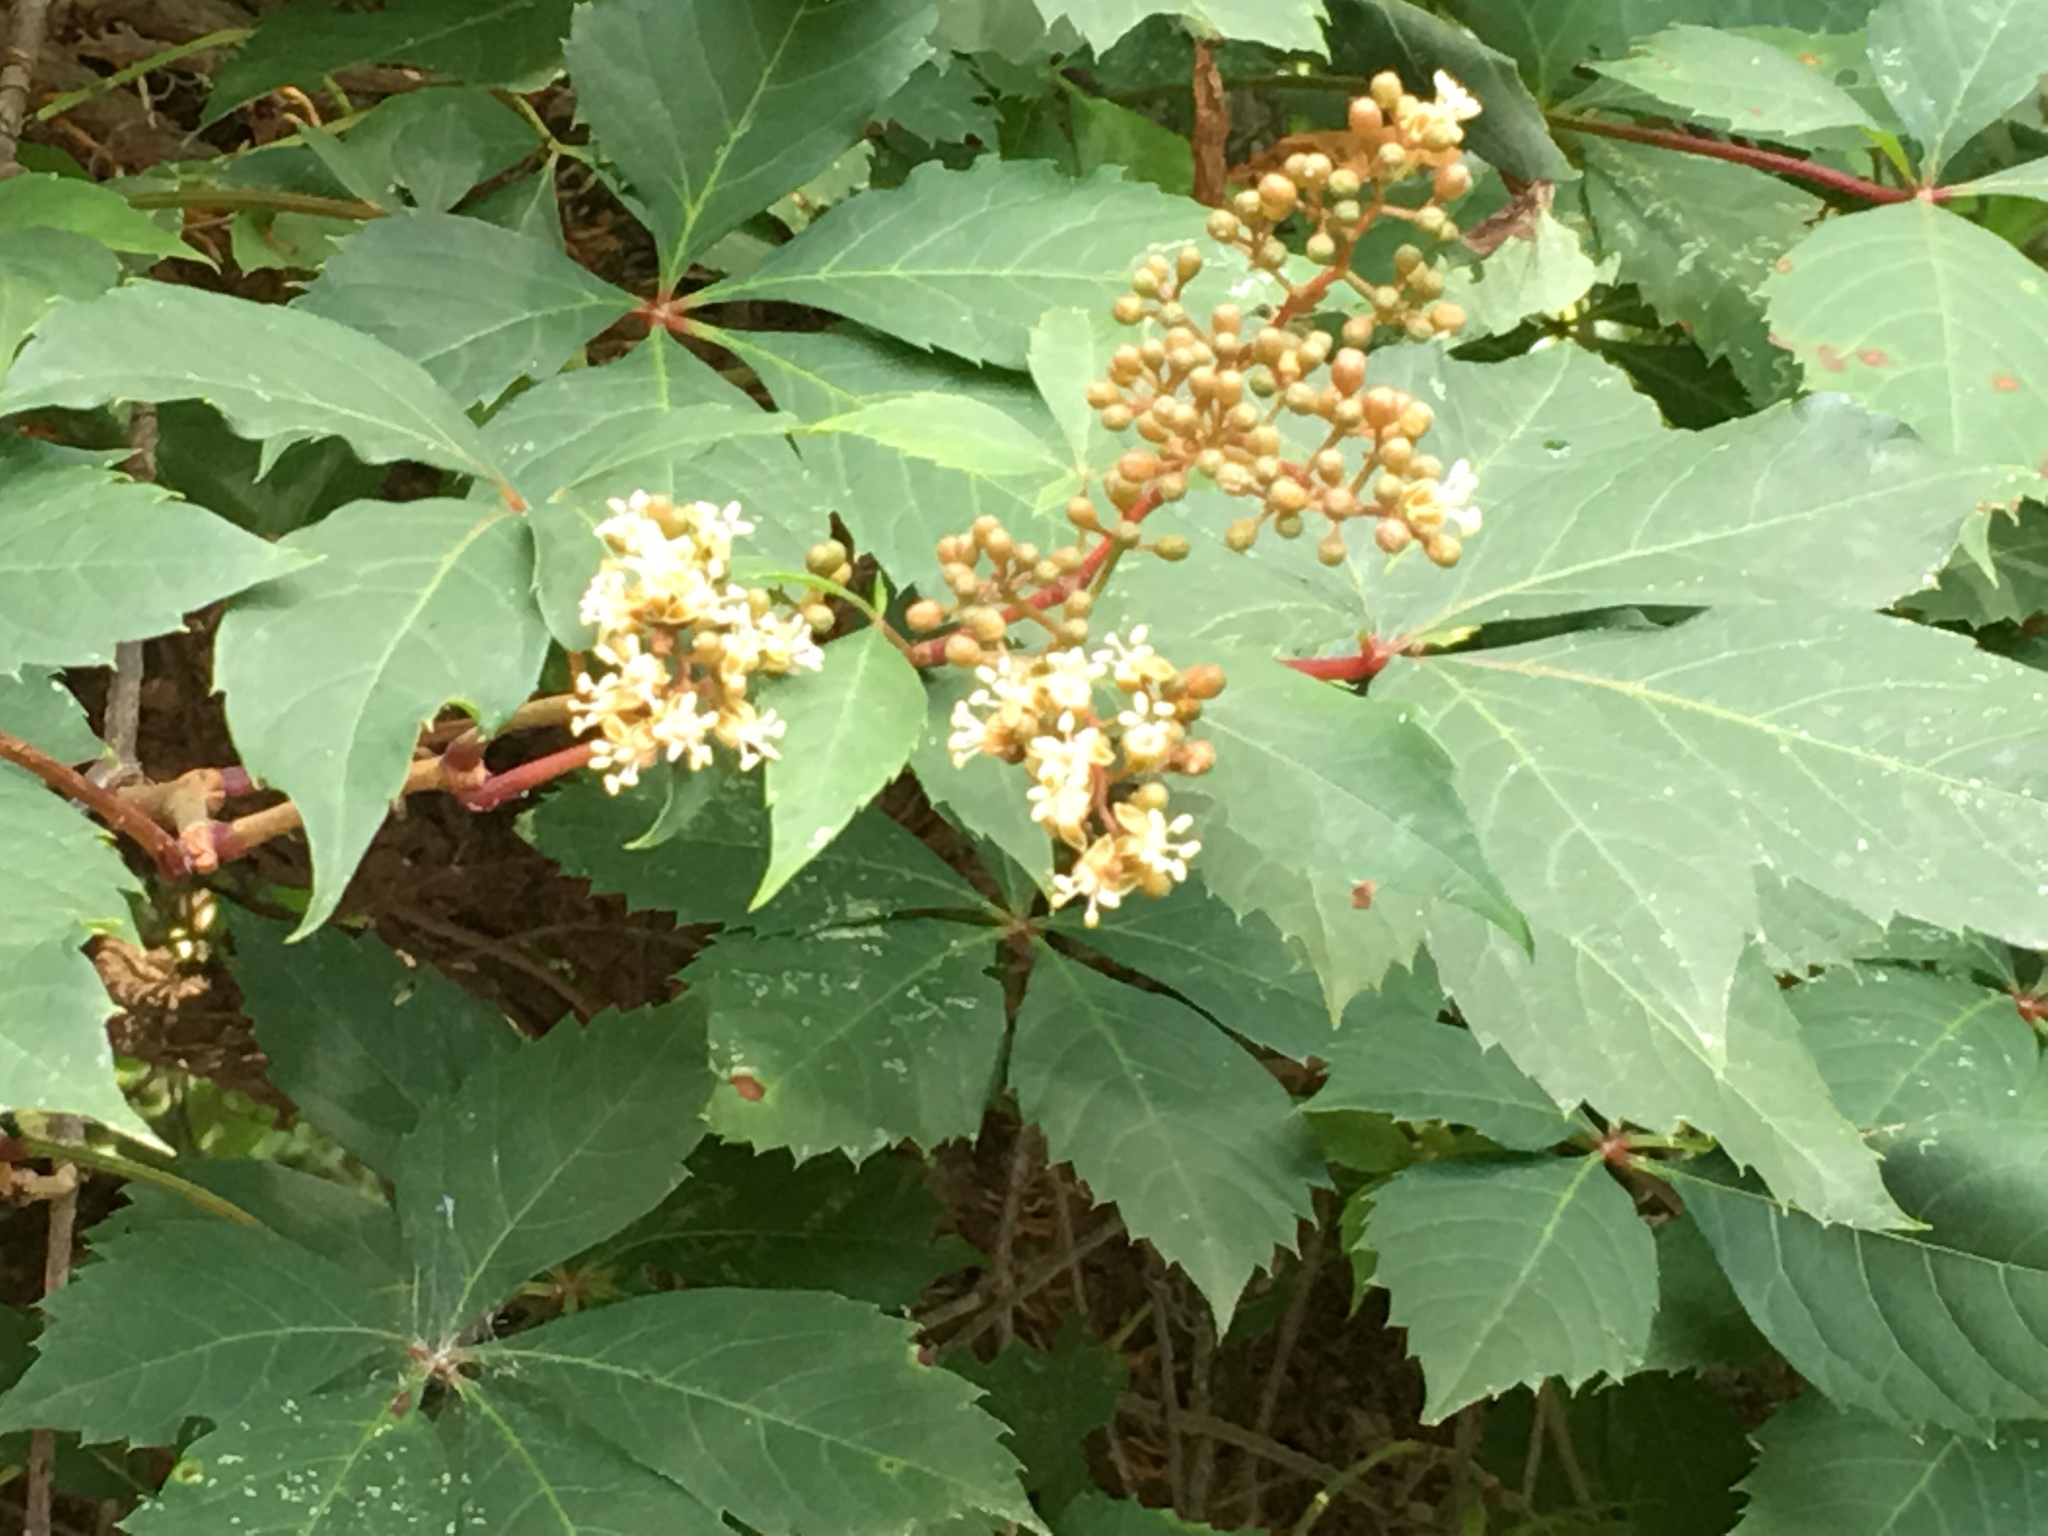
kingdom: Plantae
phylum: Tracheophyta
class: Magnoliopsida
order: Vitales
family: Vitaceae
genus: Parthenocissus
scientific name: Parthenocissus quinquefolia
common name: Virginia-creeper
